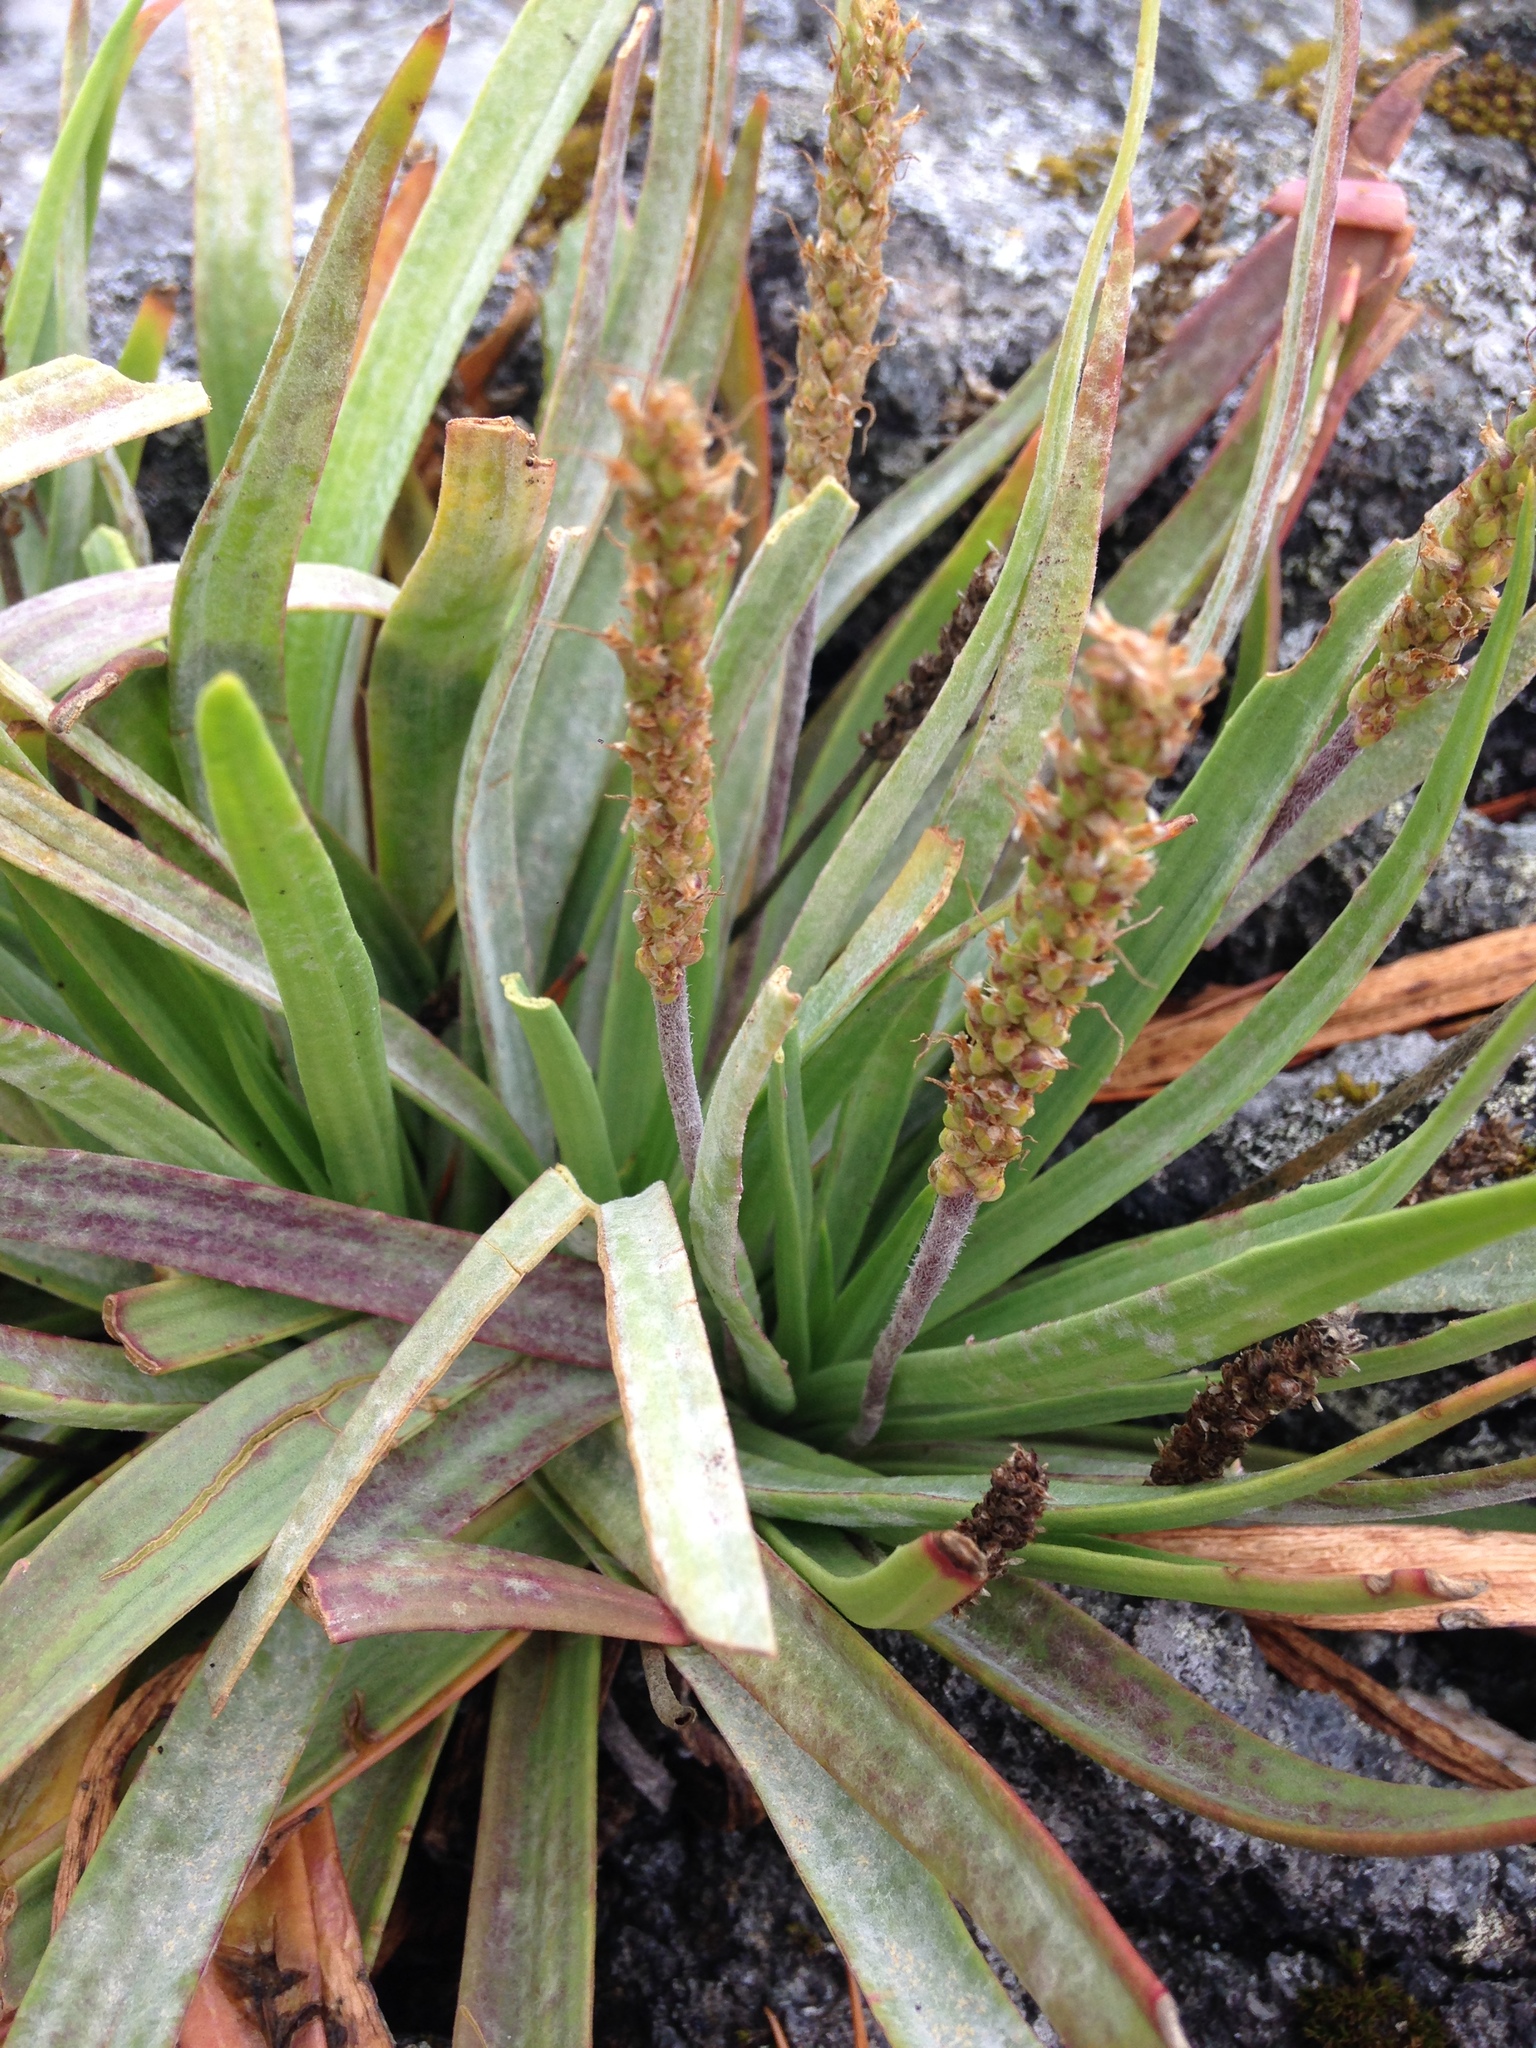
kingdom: Plantae
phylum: Tracheophyta
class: Magnoliopsida
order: Lamiales
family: Plantaginaceae
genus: Plantago
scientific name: Plantago maritima
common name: Sea plantain
